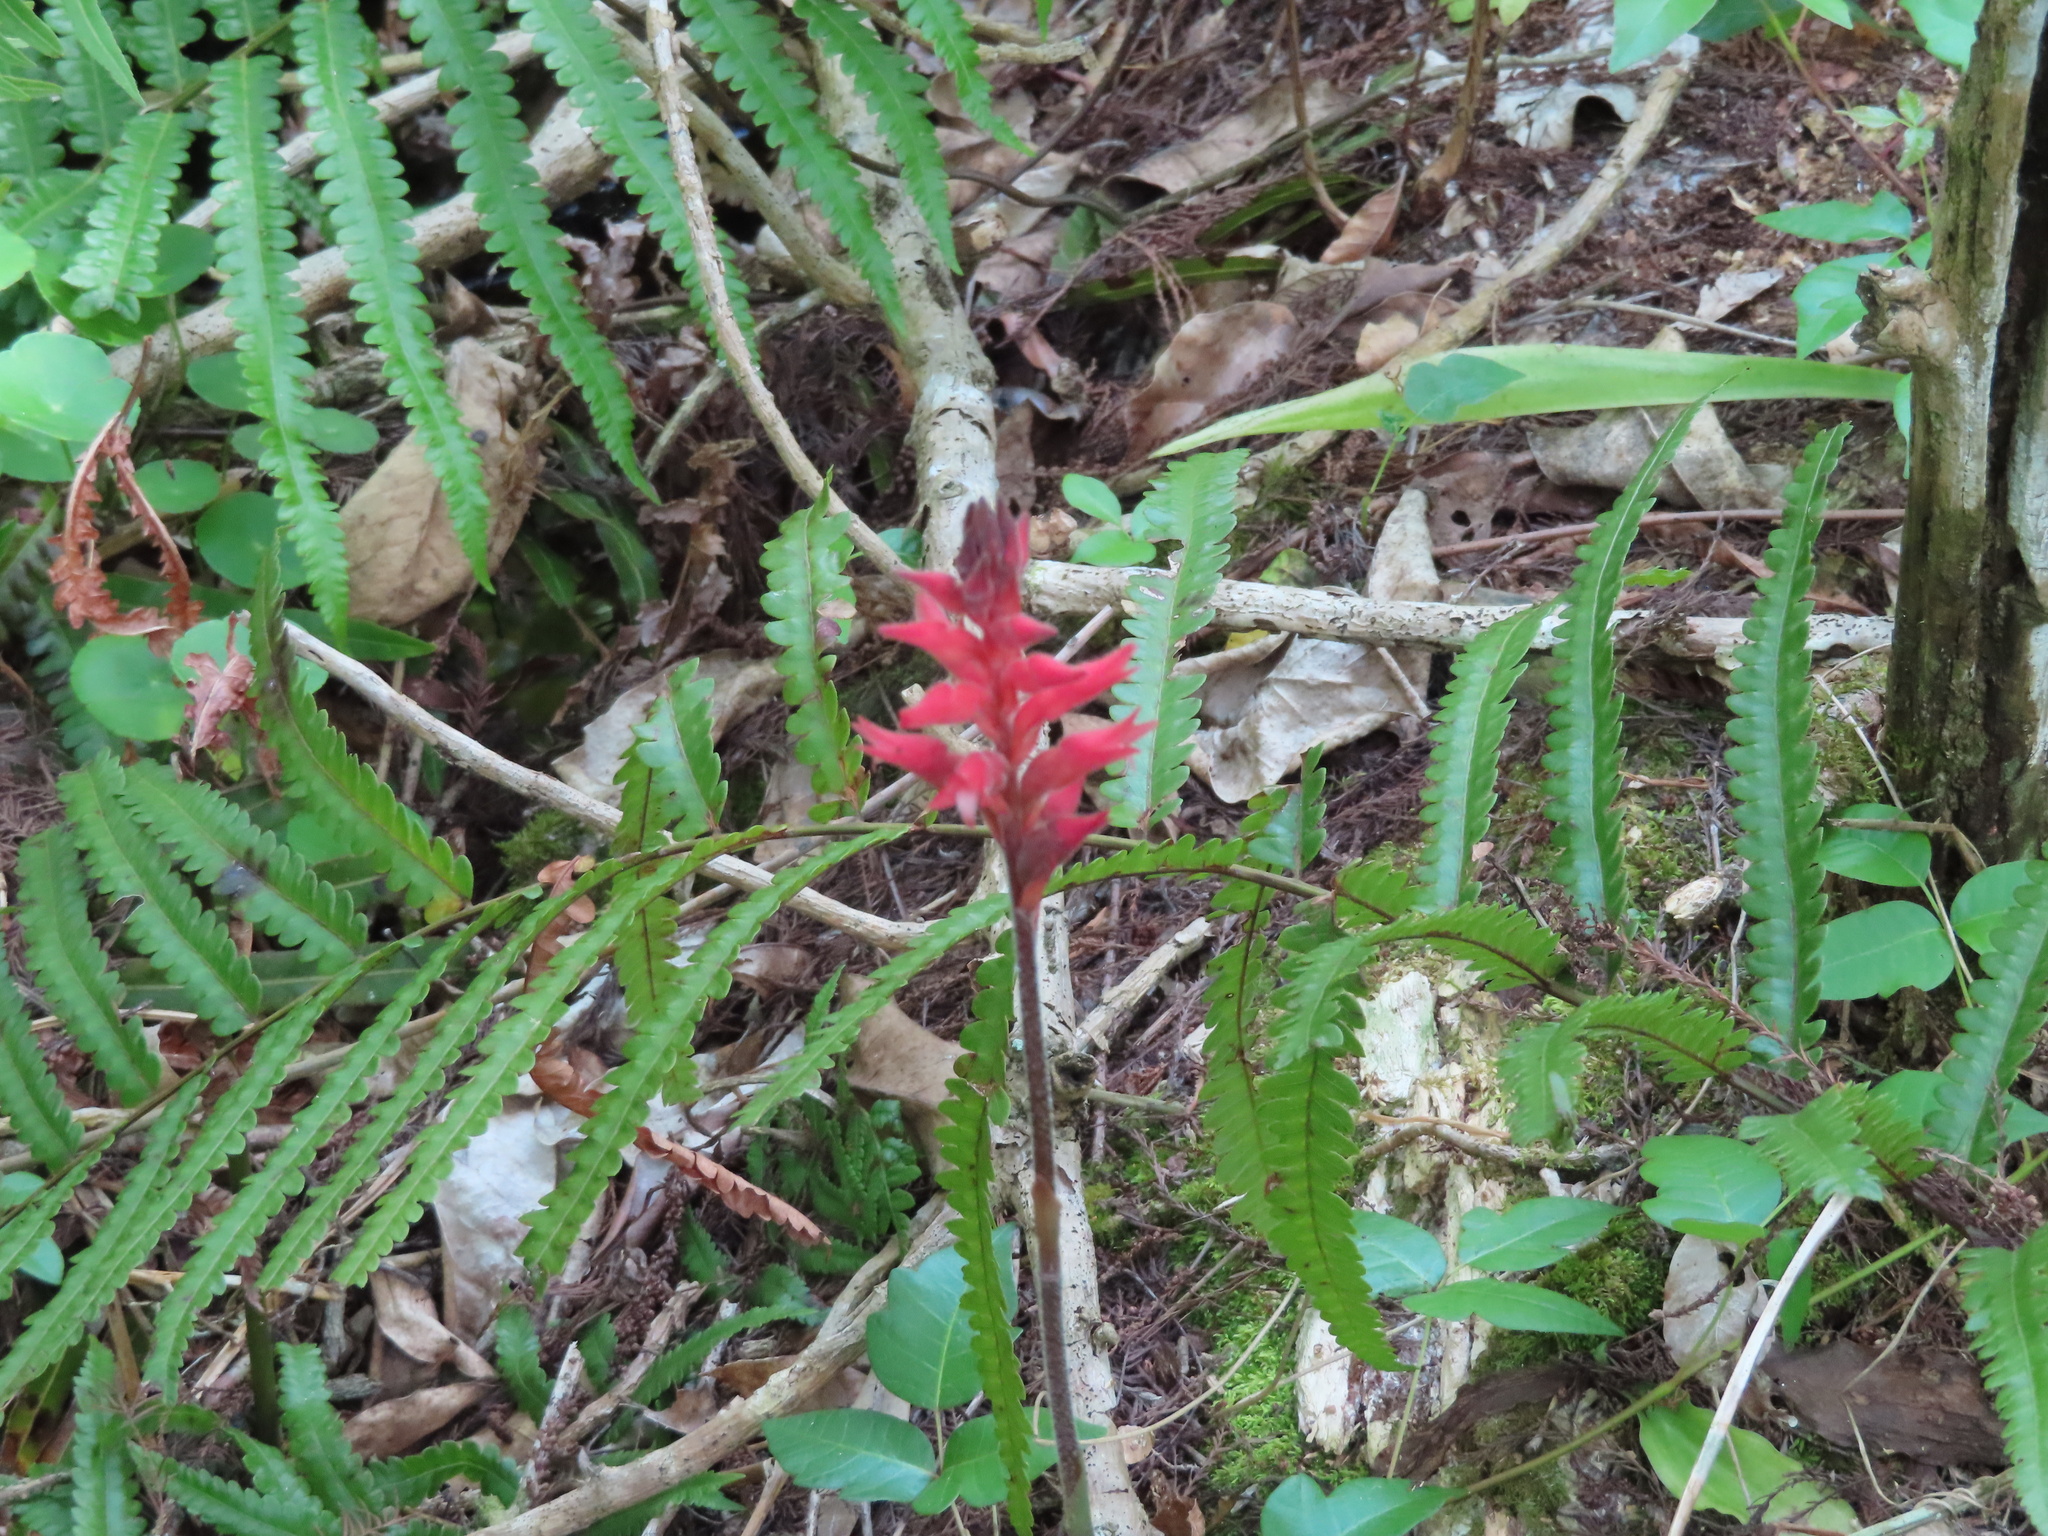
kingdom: Plantae
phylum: Tracheophyta
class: Liliopsida
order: Asparagales
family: Orchidaceae
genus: Sacoila
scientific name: Sacoila lanceolata
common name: Leafless beaked ladiestresses
